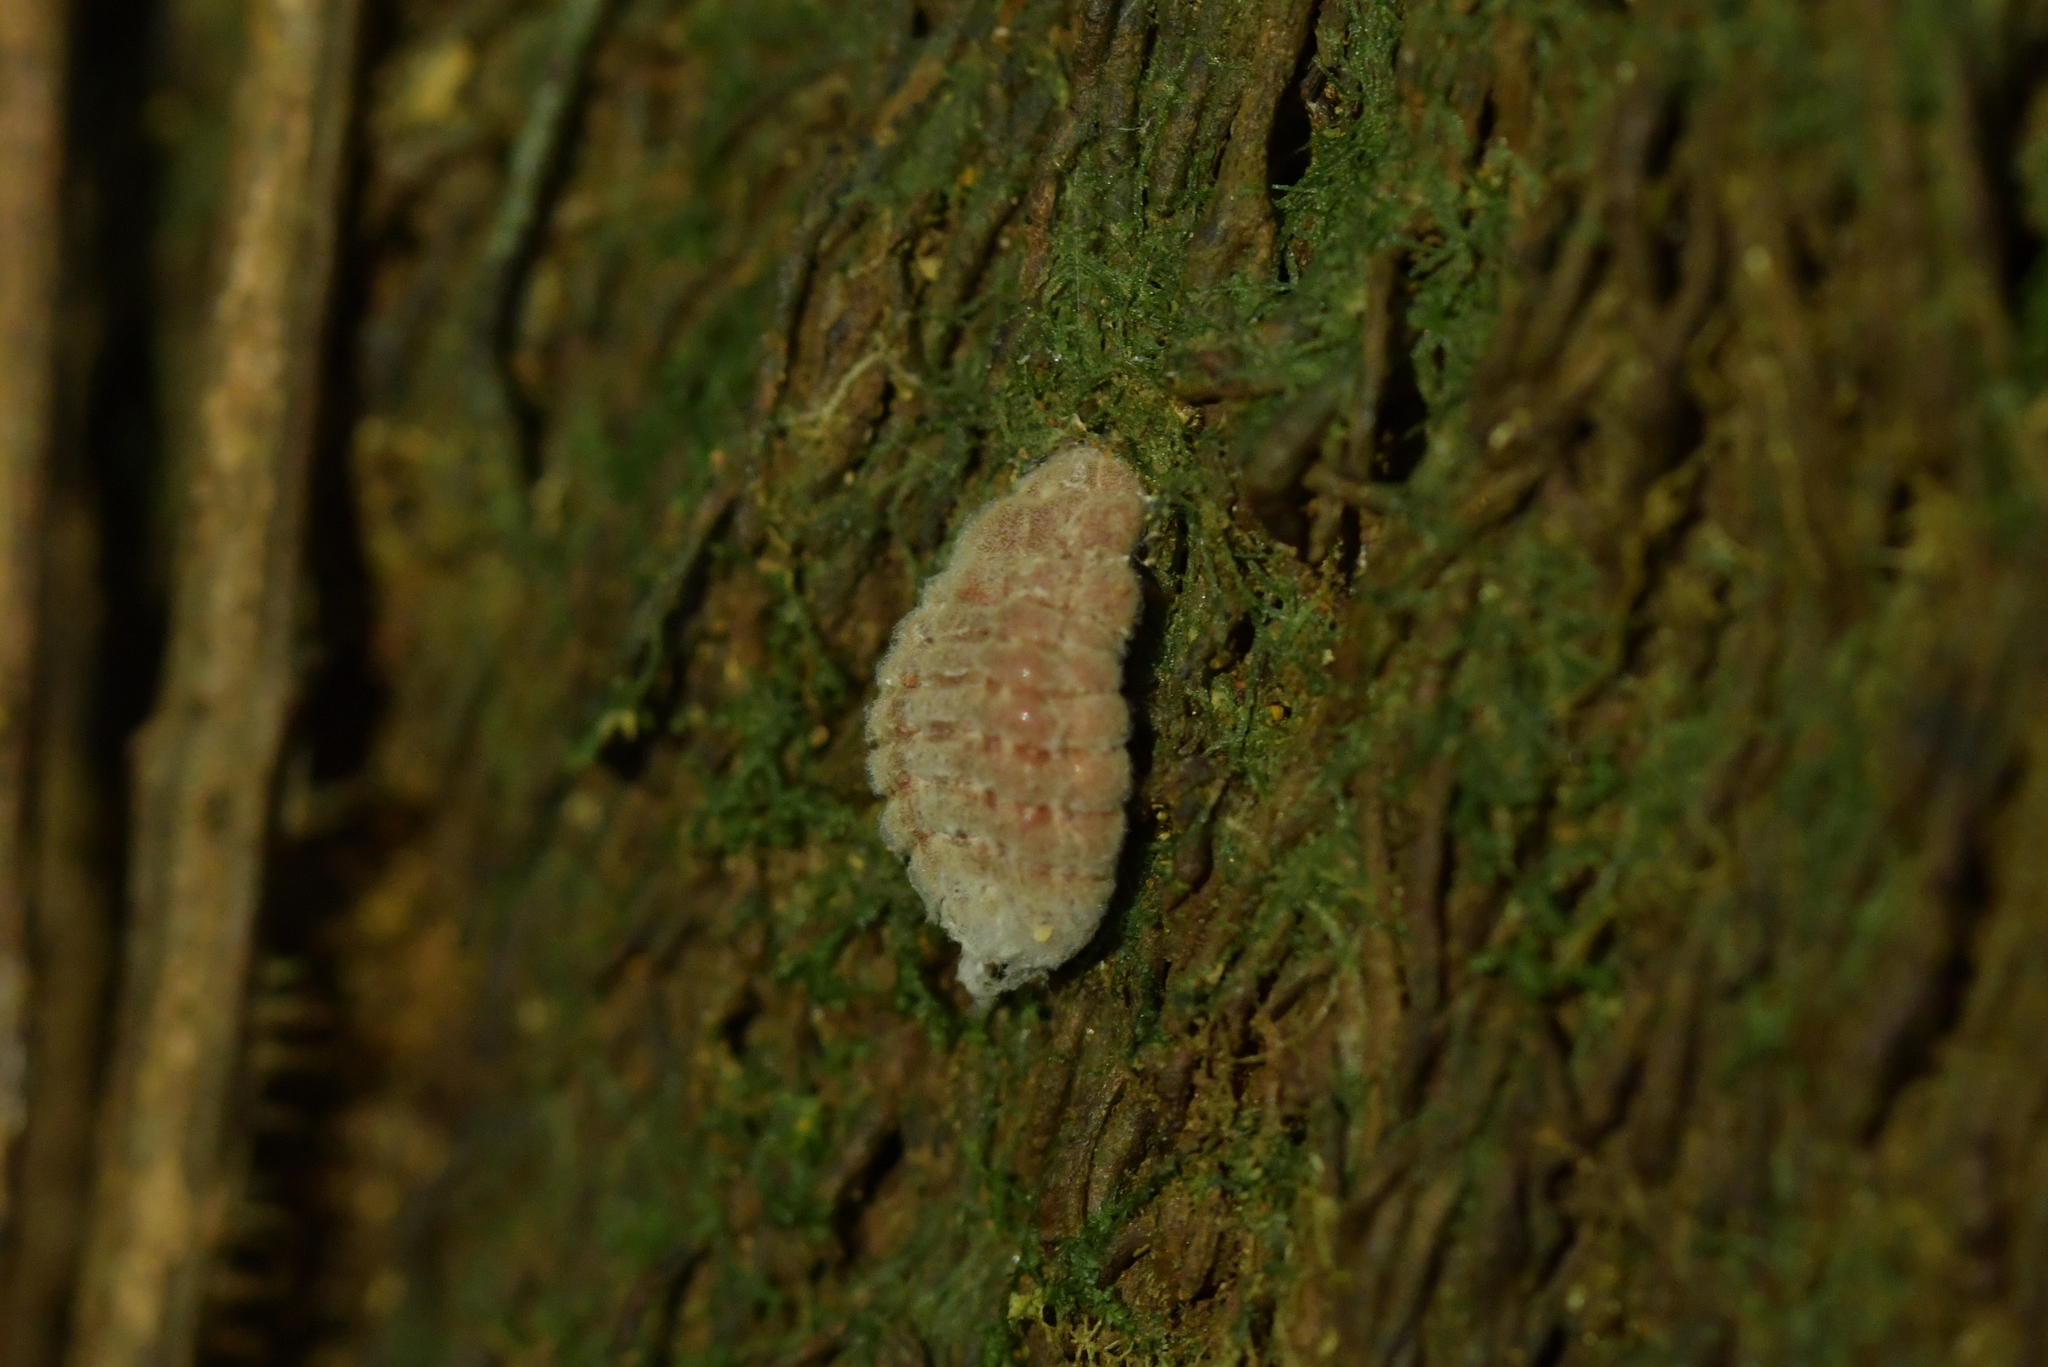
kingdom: Animalia
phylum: Arthropoda
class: Insecta
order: Hemiptera
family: Margarodidae
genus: Coelostomidia
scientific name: Coelostomidia zealandica
